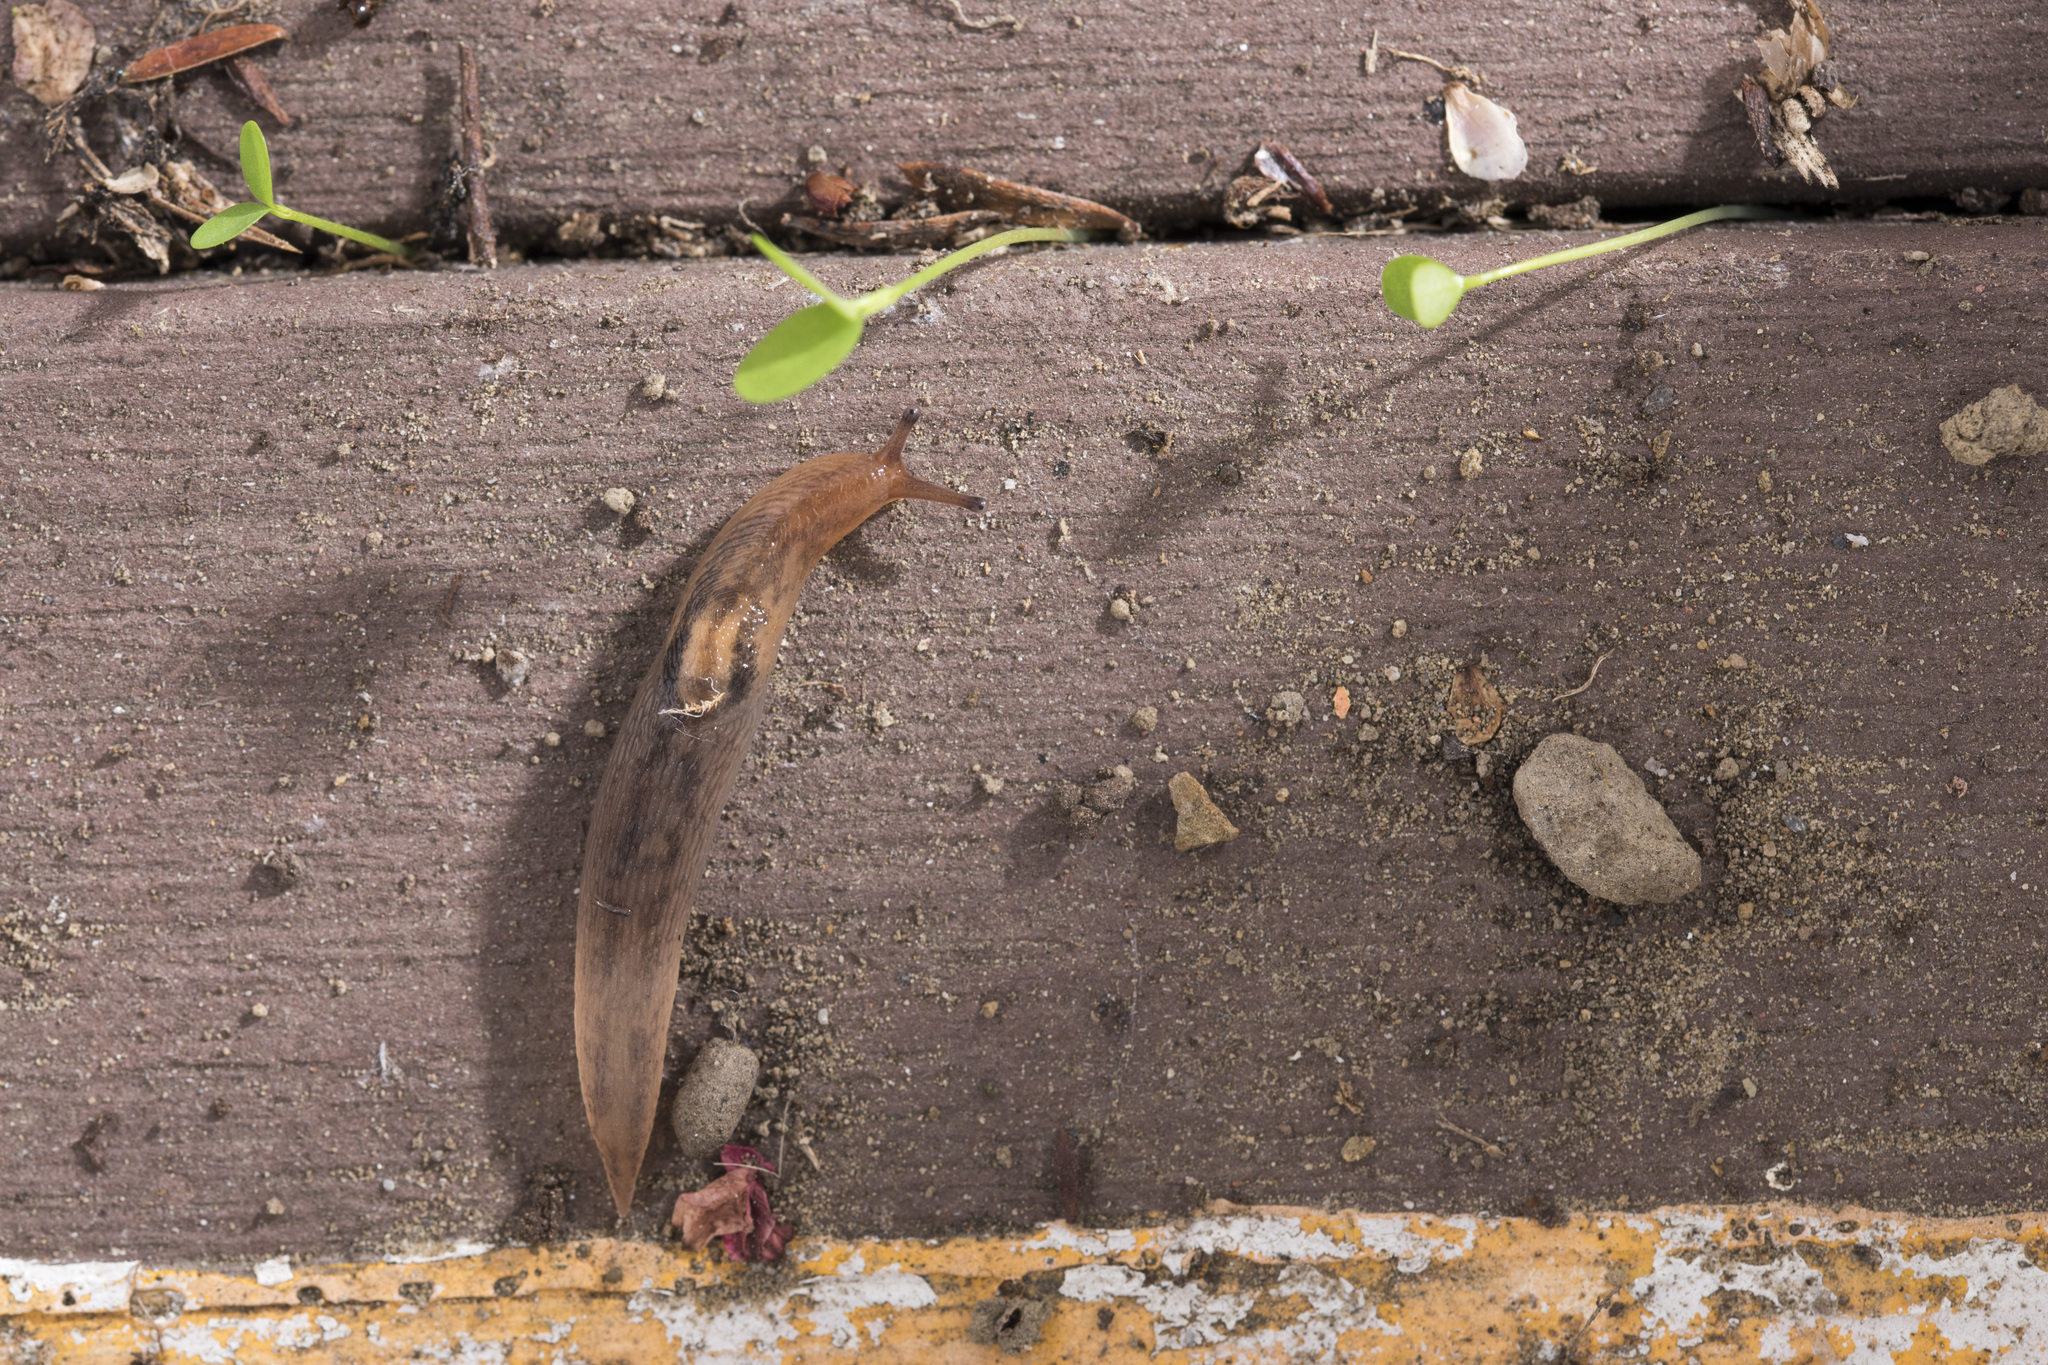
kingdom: Animalia
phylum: Mollusca
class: Gastropoda
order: Stylommatophora
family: Limacidae
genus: Ambigolimax
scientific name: Ambigolimax valentianus
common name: Greenhouse slug
